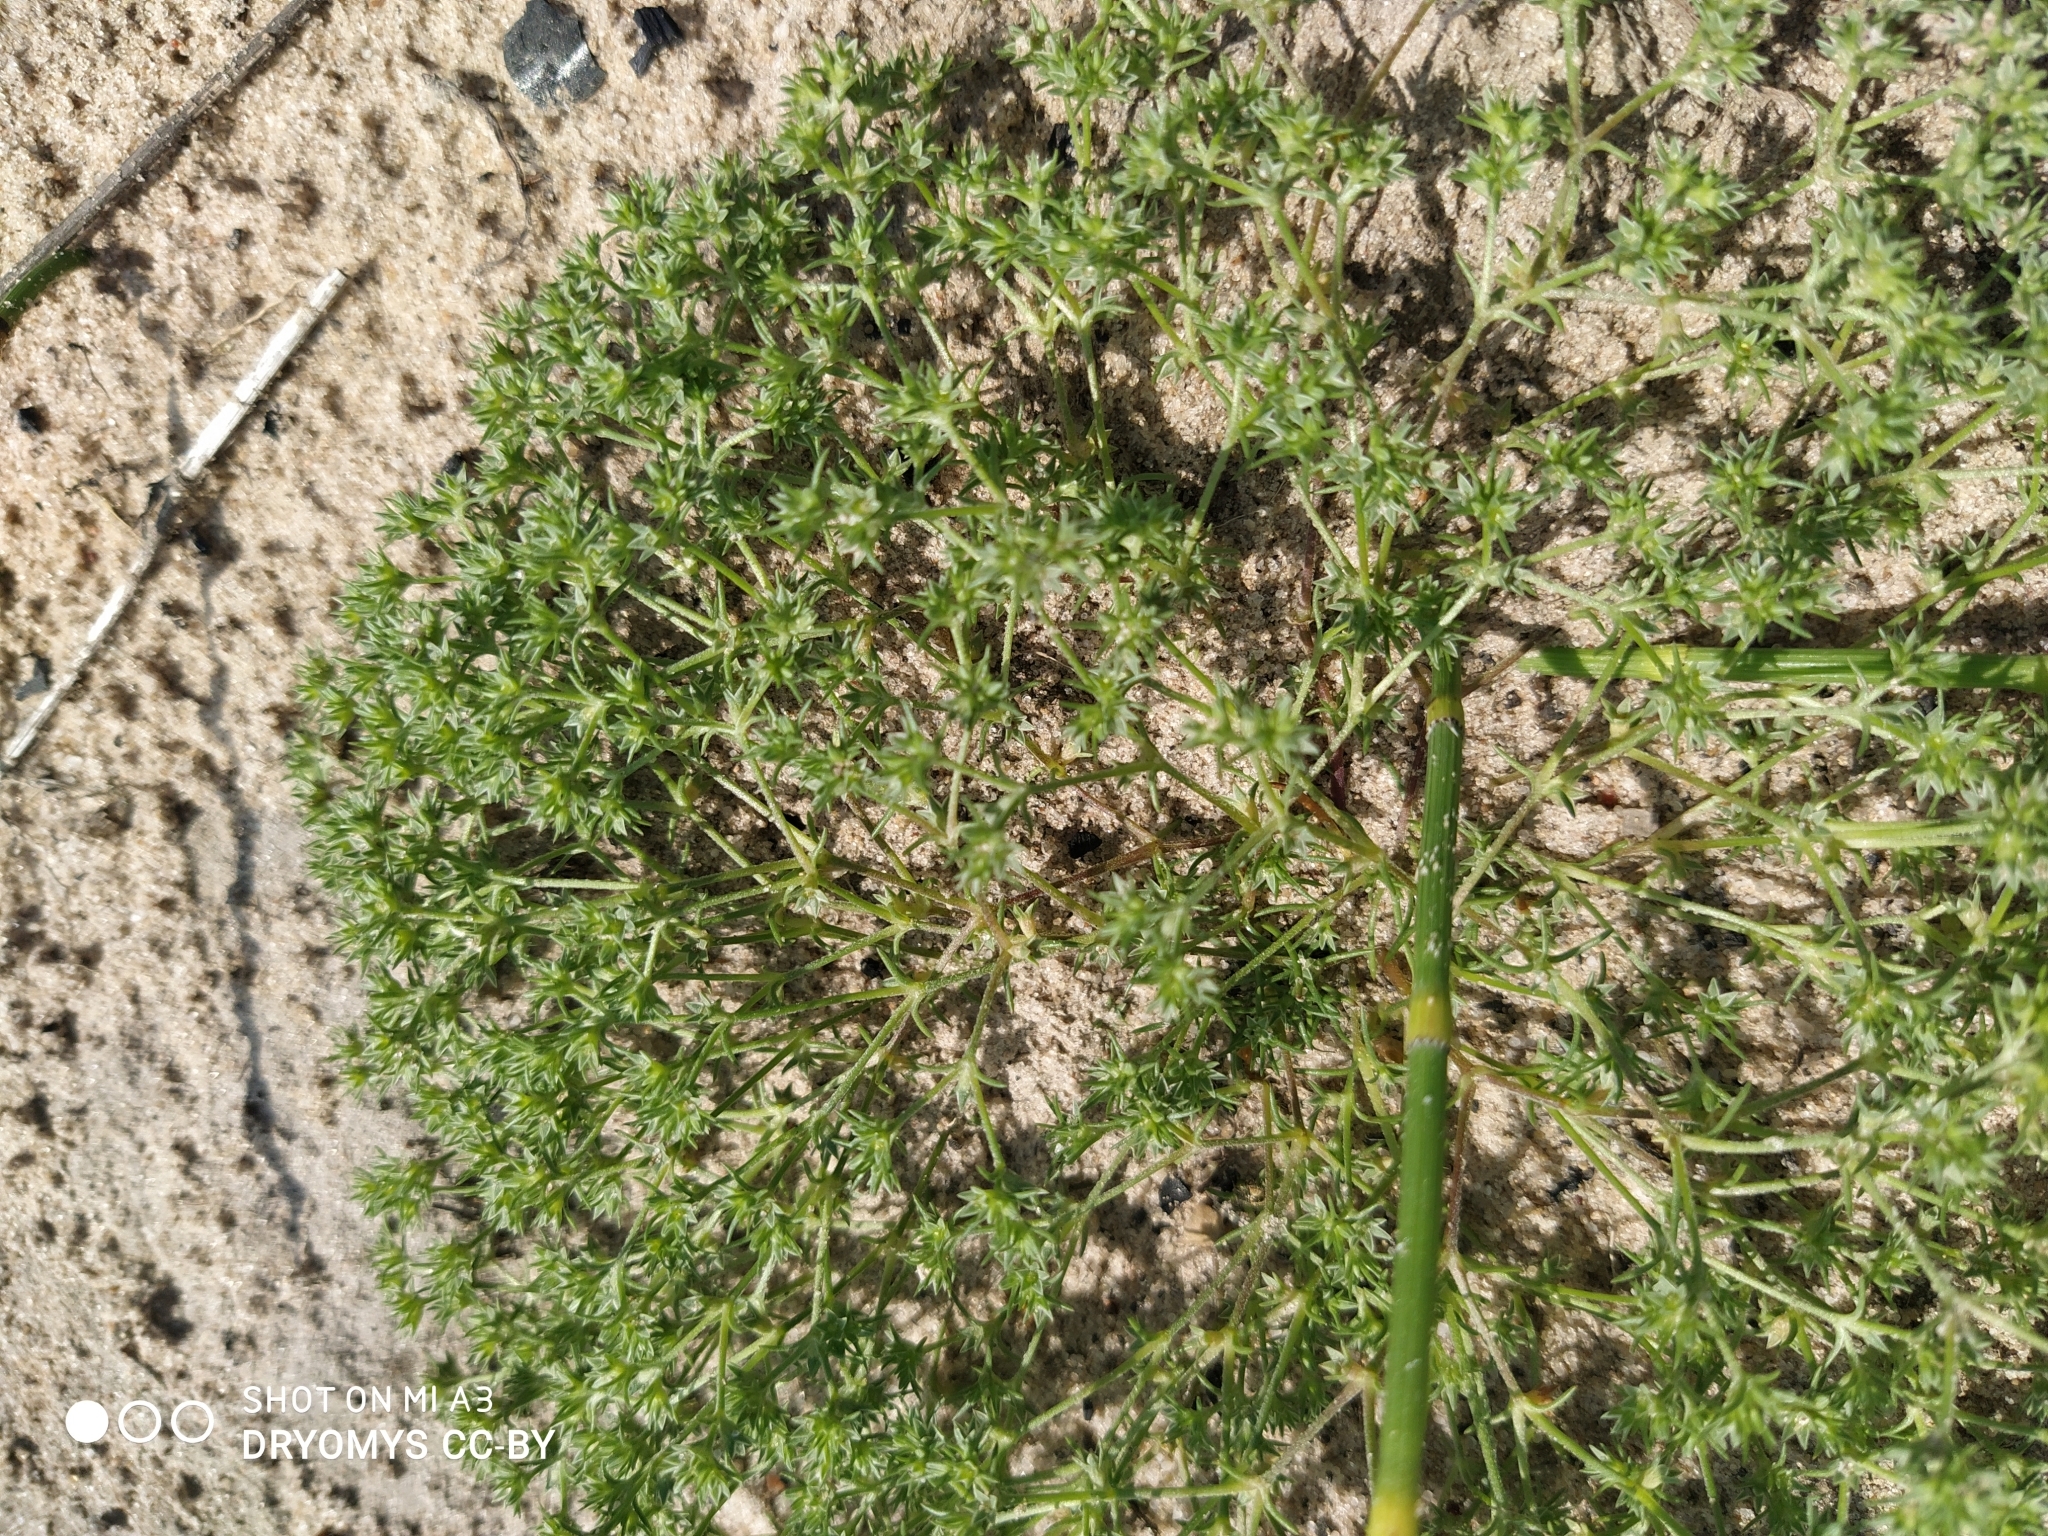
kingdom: Plantae
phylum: Tracheophyta
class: Magnoliopsida
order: Caryophyllales
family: Caryophyllaceae
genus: Scleranthus
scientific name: Scleranthus annuus
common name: Annual knawel
